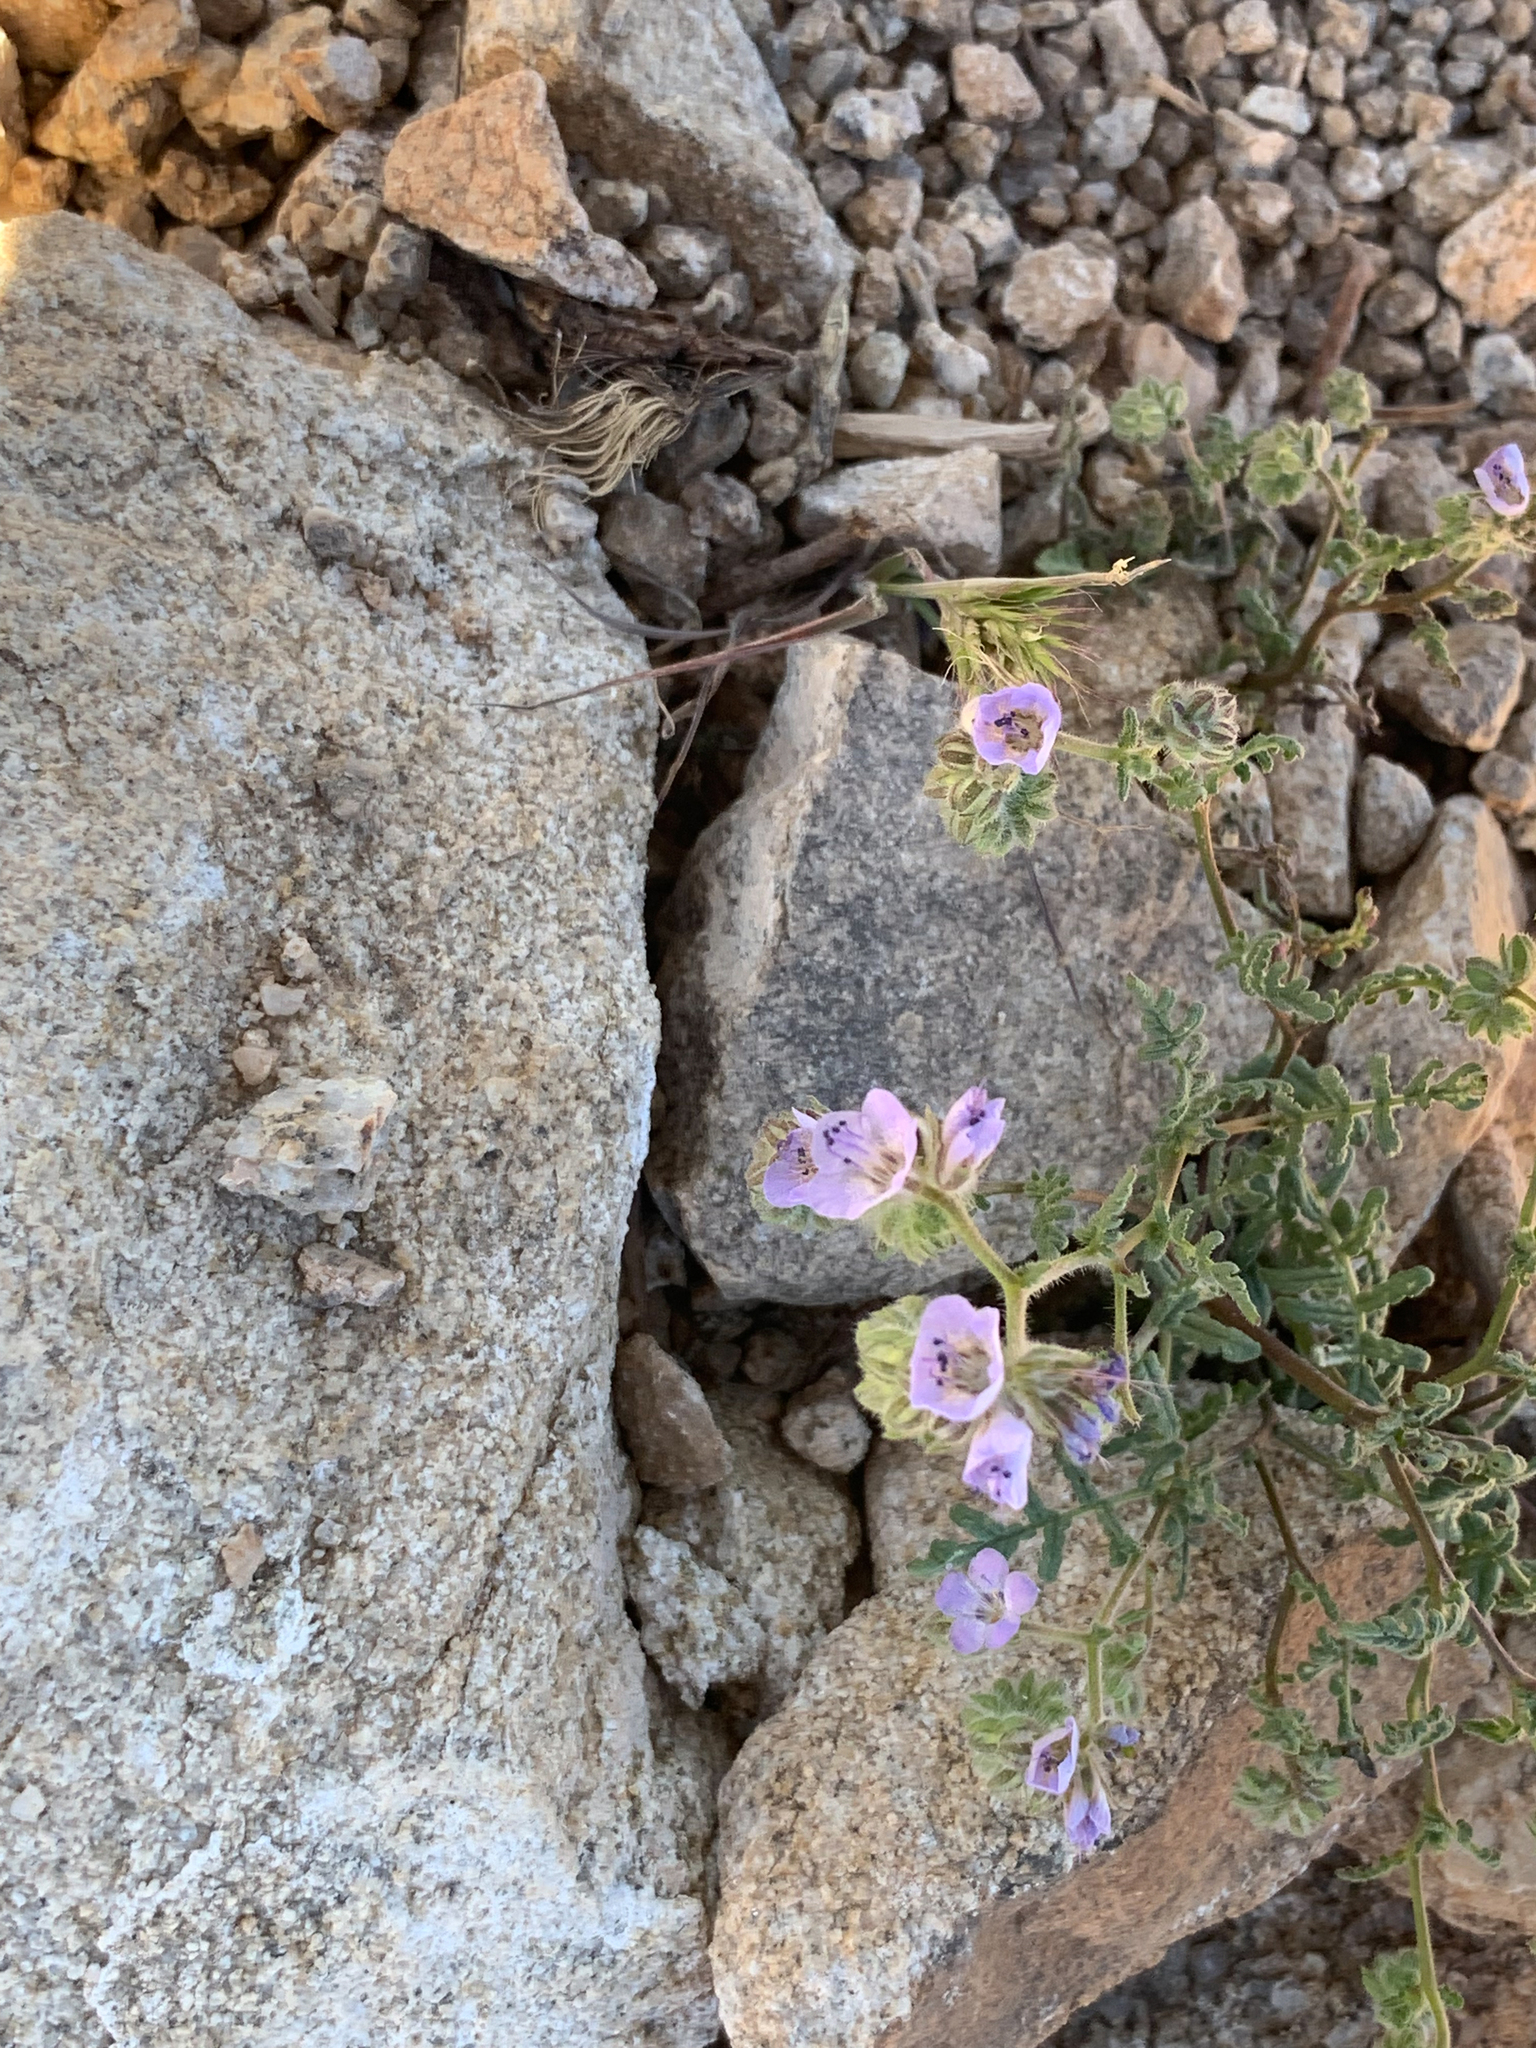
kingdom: Plantae
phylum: Tracheophyta
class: Magnoliopsida
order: Boraginales
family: Hydrophyllaceae
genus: Phacelia
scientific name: Phacelia distans
